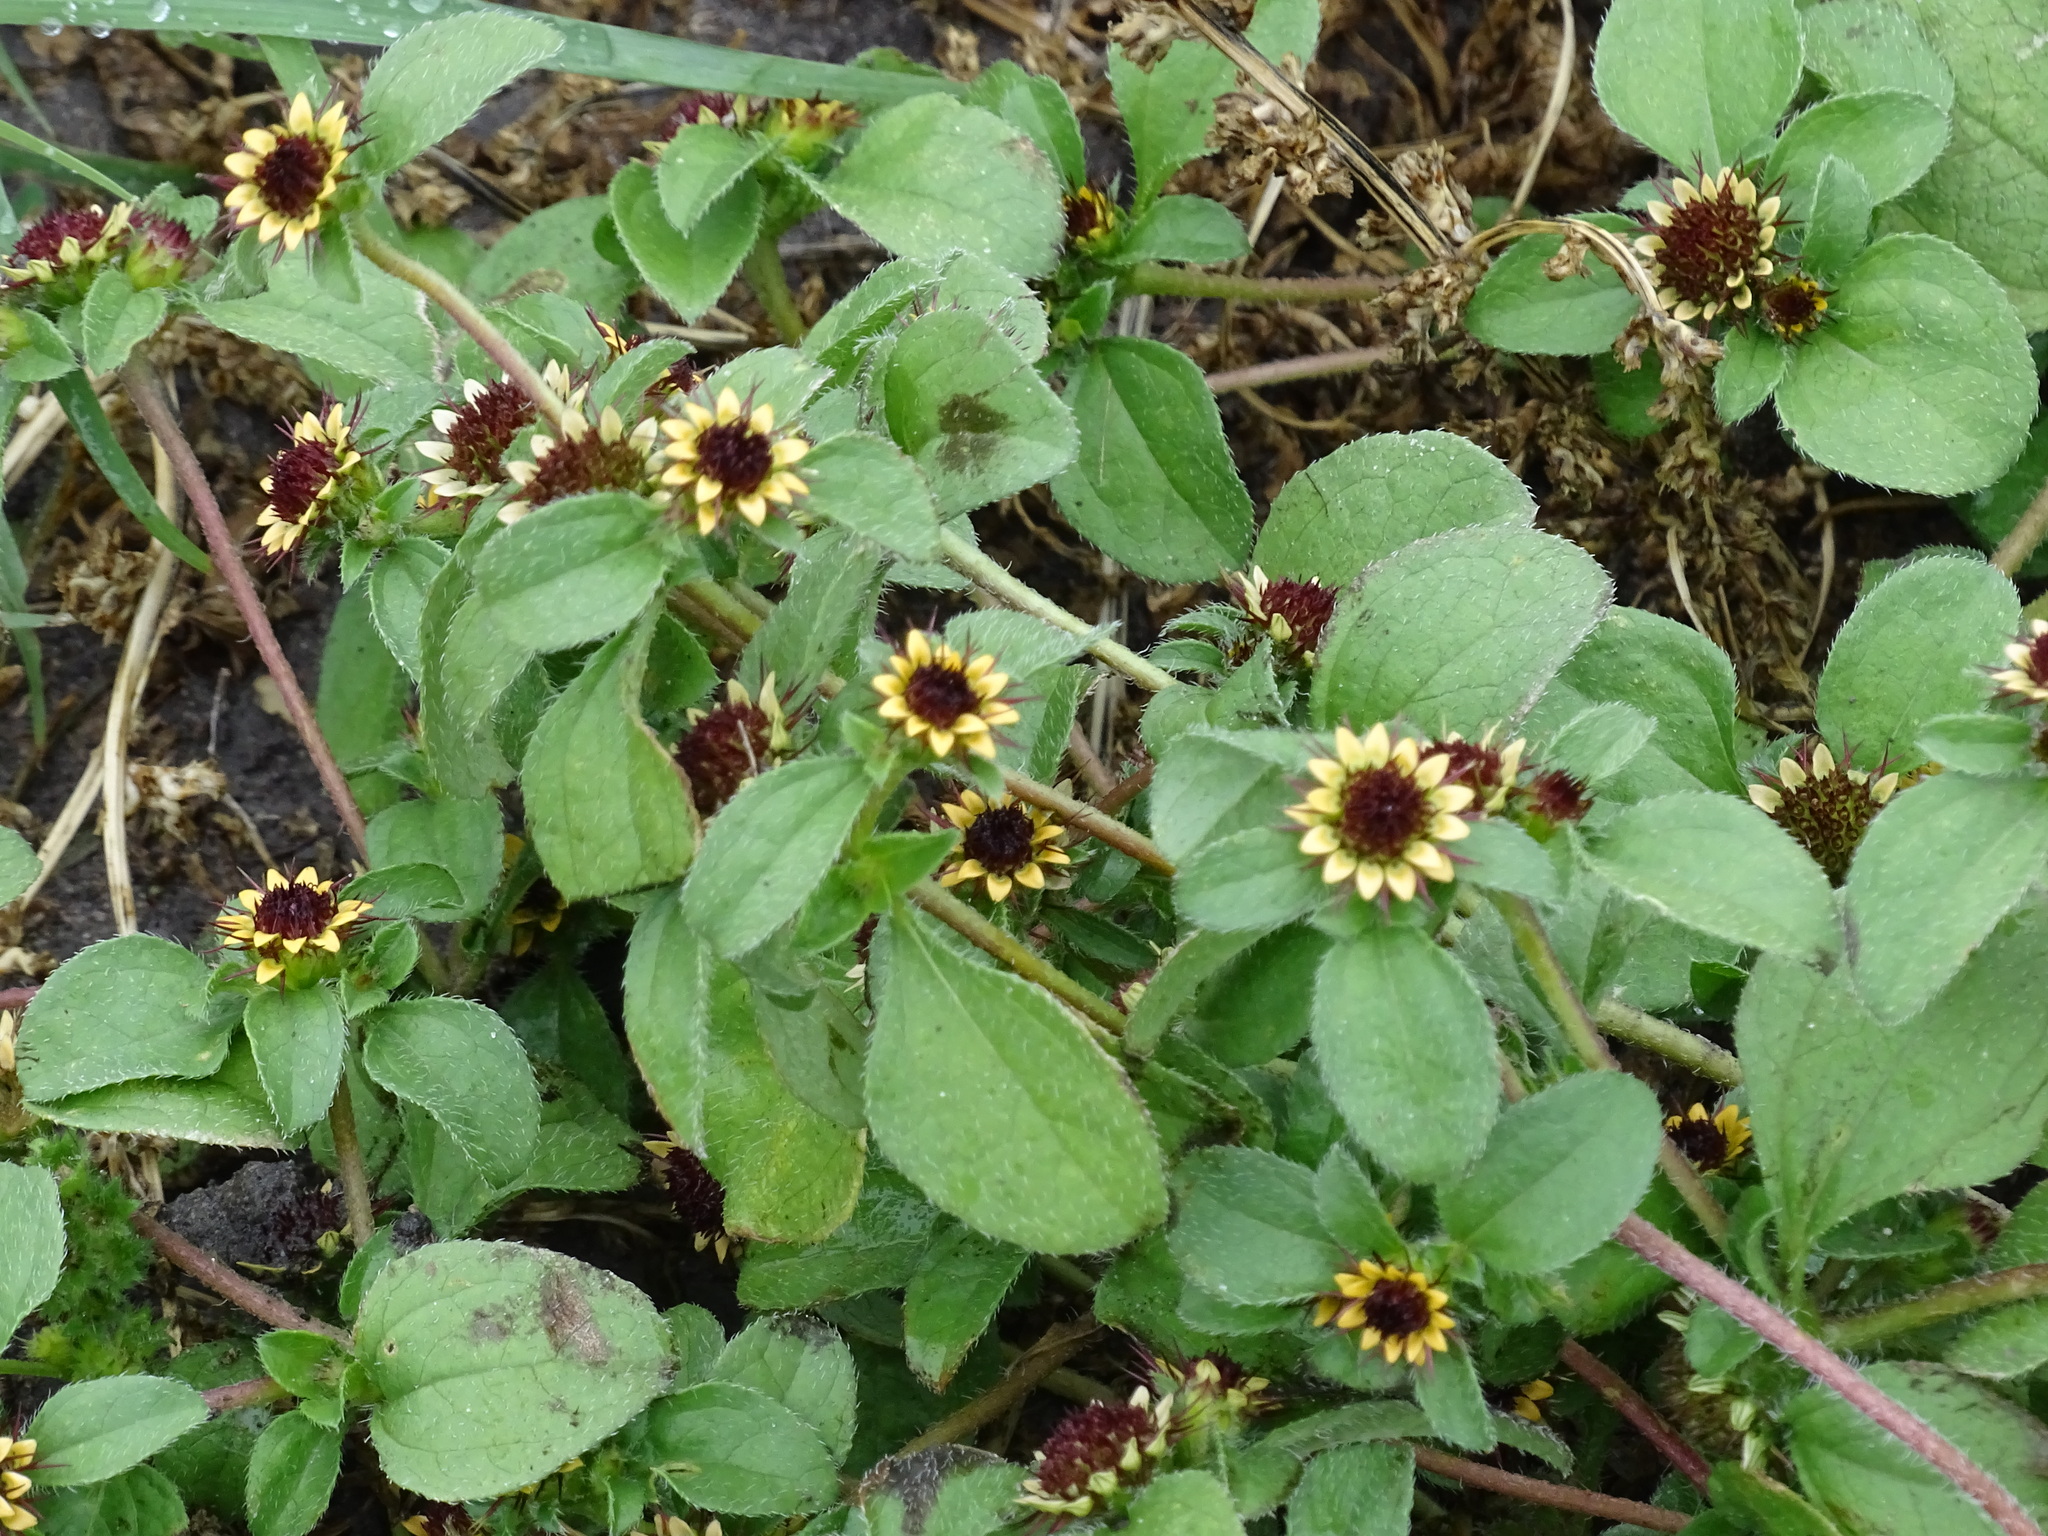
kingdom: Plantae
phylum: Tracheophyta
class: Magnoliopsida
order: Asterales
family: Asteraceae
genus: Sanvitalia
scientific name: Sanvitalia ocymoides
